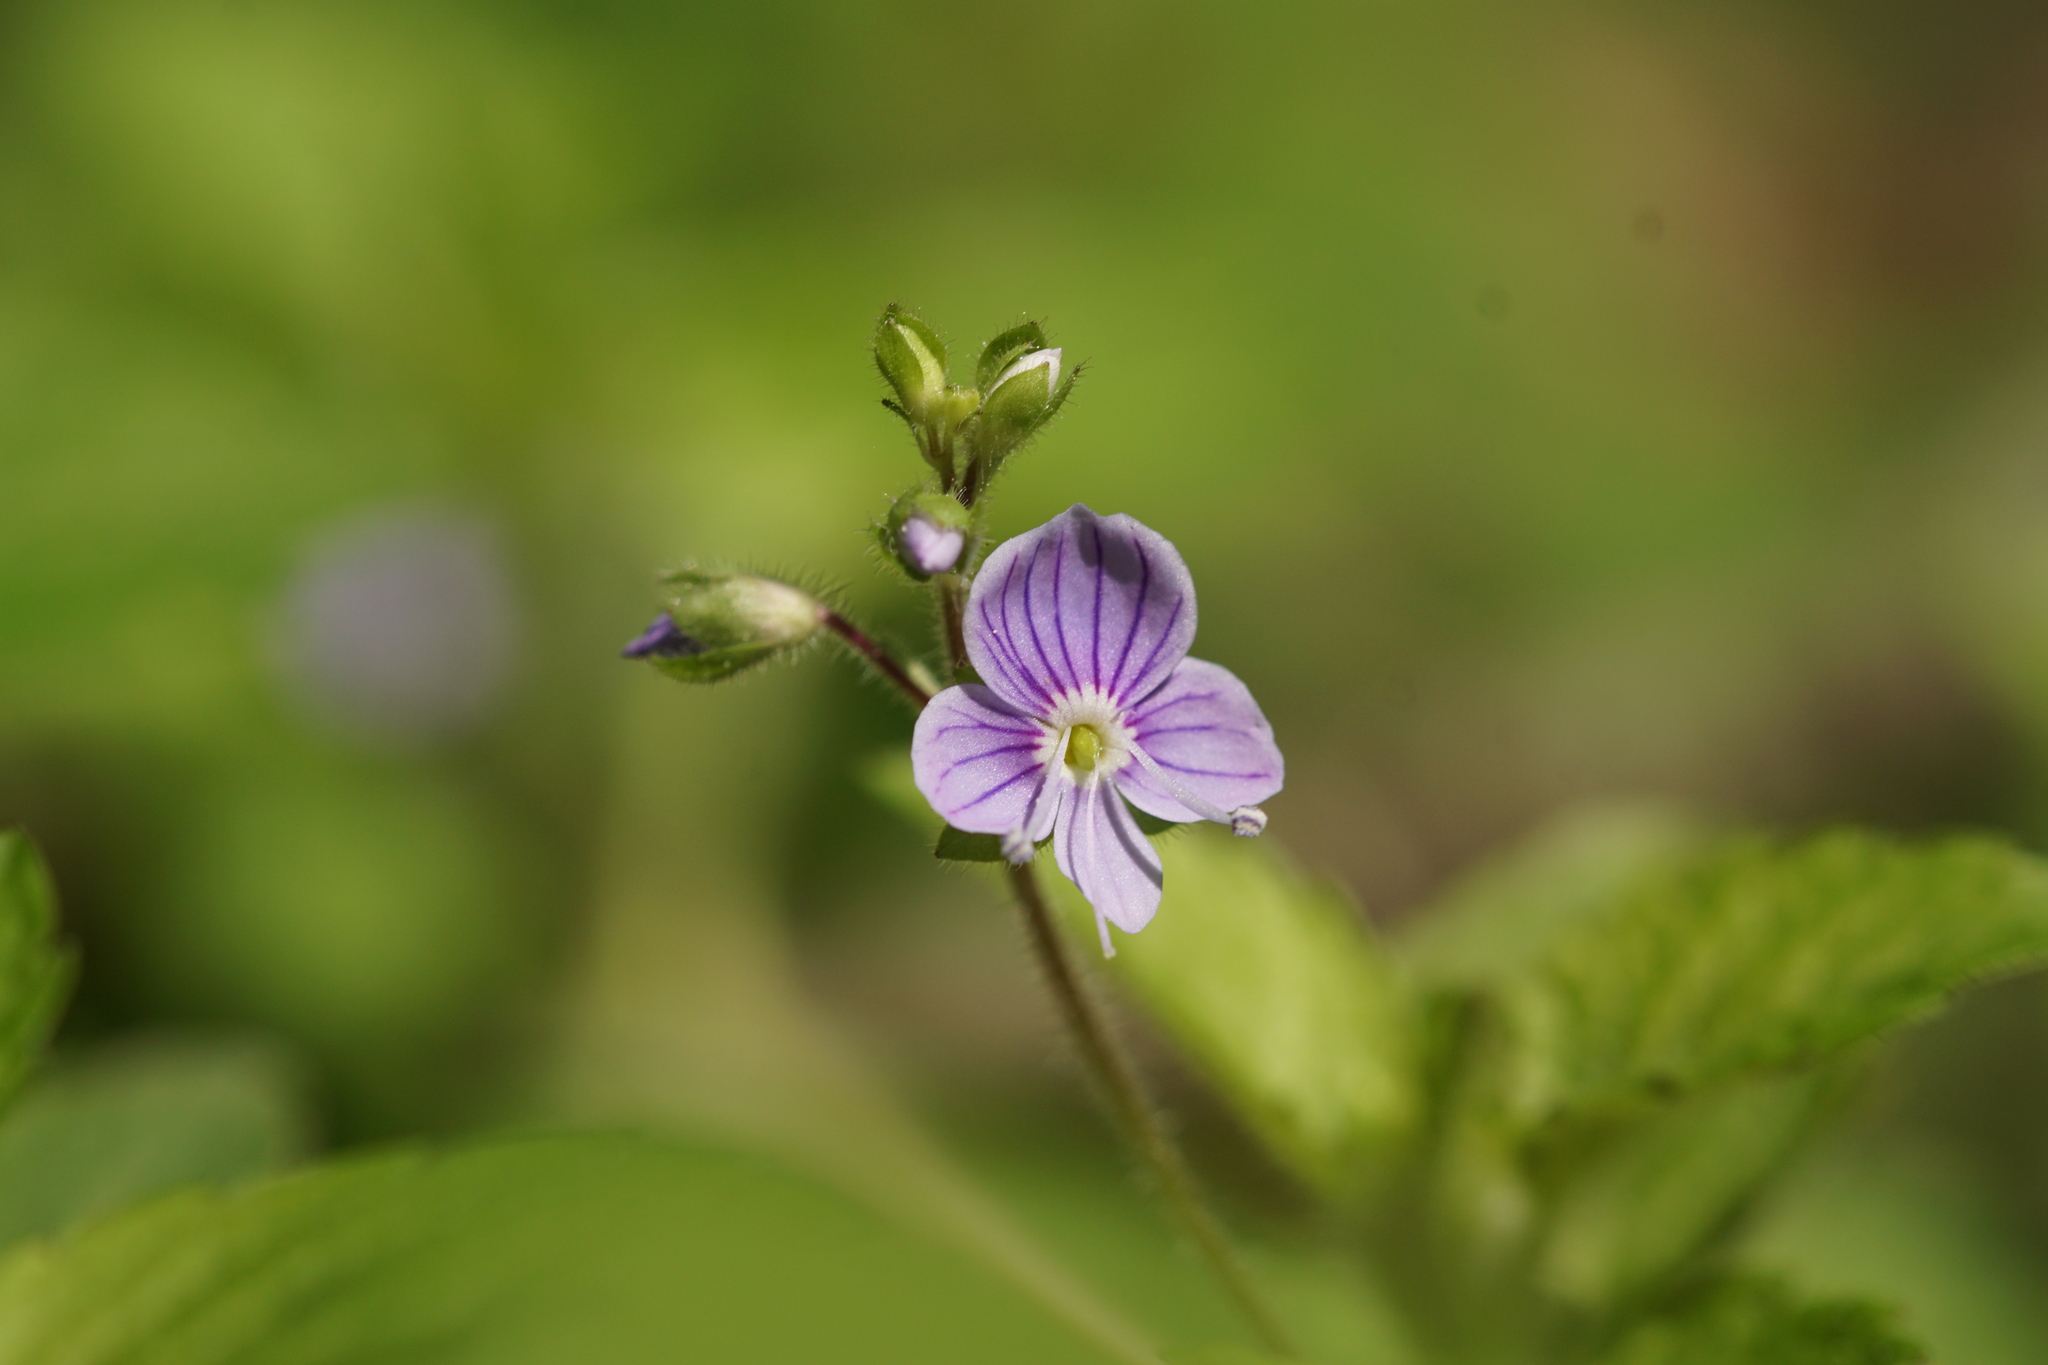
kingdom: Plantae
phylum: Tracheophyta
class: Magnoliopsida
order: Lamiales
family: Plantaginaceae
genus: Veronica
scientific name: Veronica montana
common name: Wood speedwell
